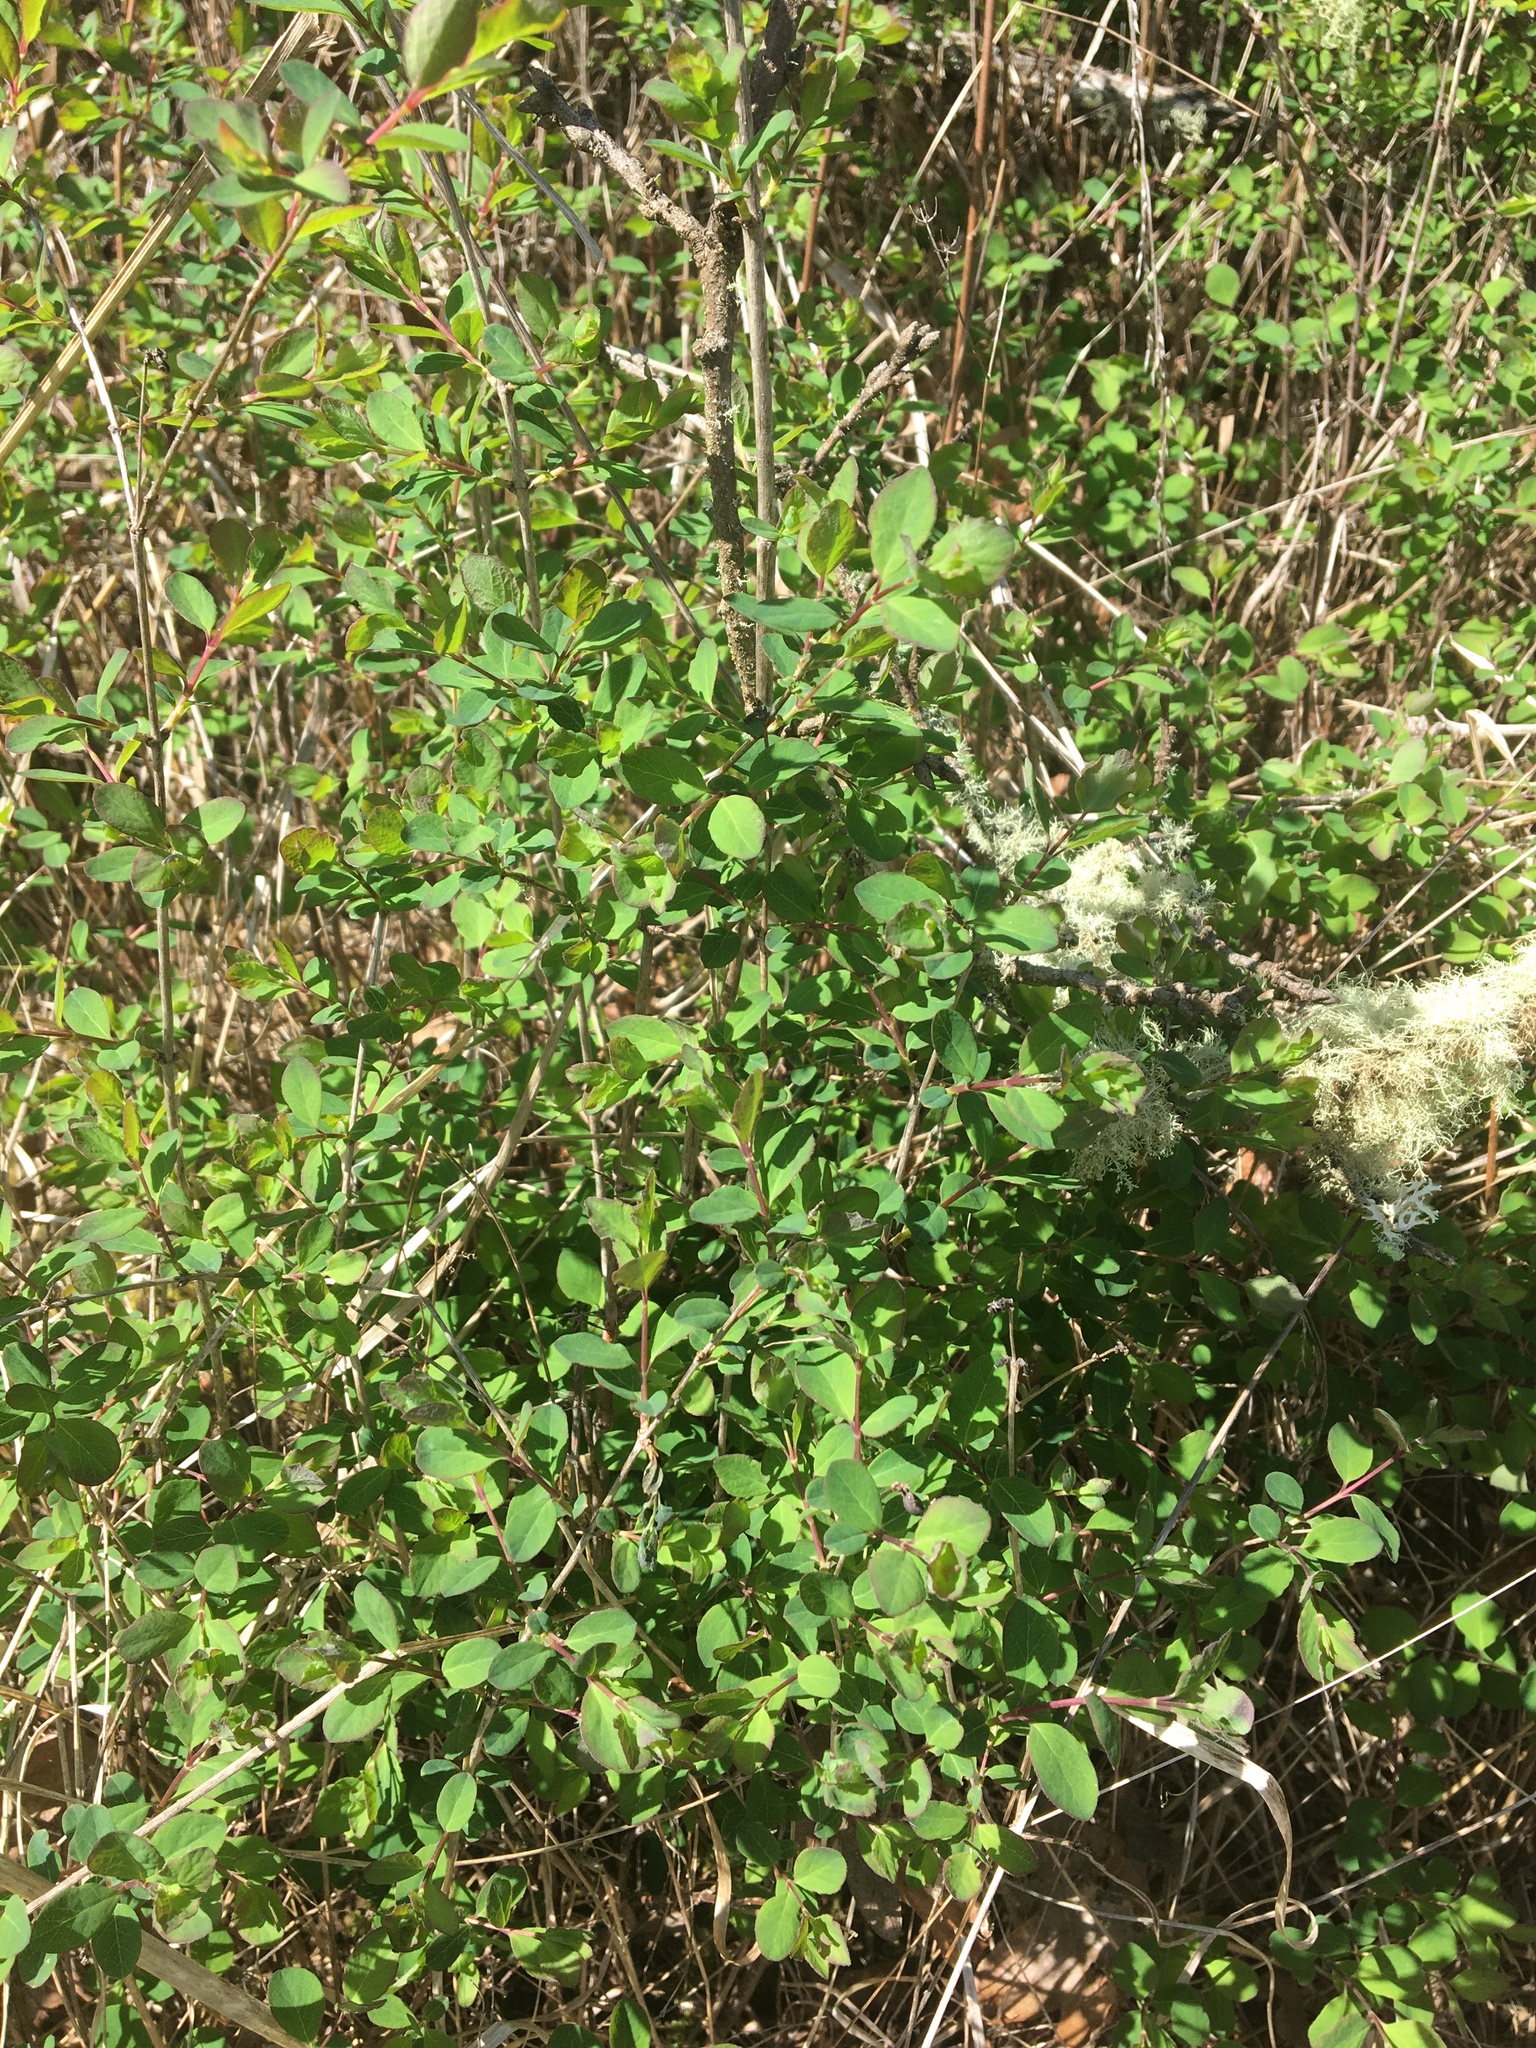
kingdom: Plantae
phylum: Tracheophyta
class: Magnoliopsida
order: Dipsacales
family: Caprifoliaceae
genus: Symphoricarpos
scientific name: Symphoricarpos albus
